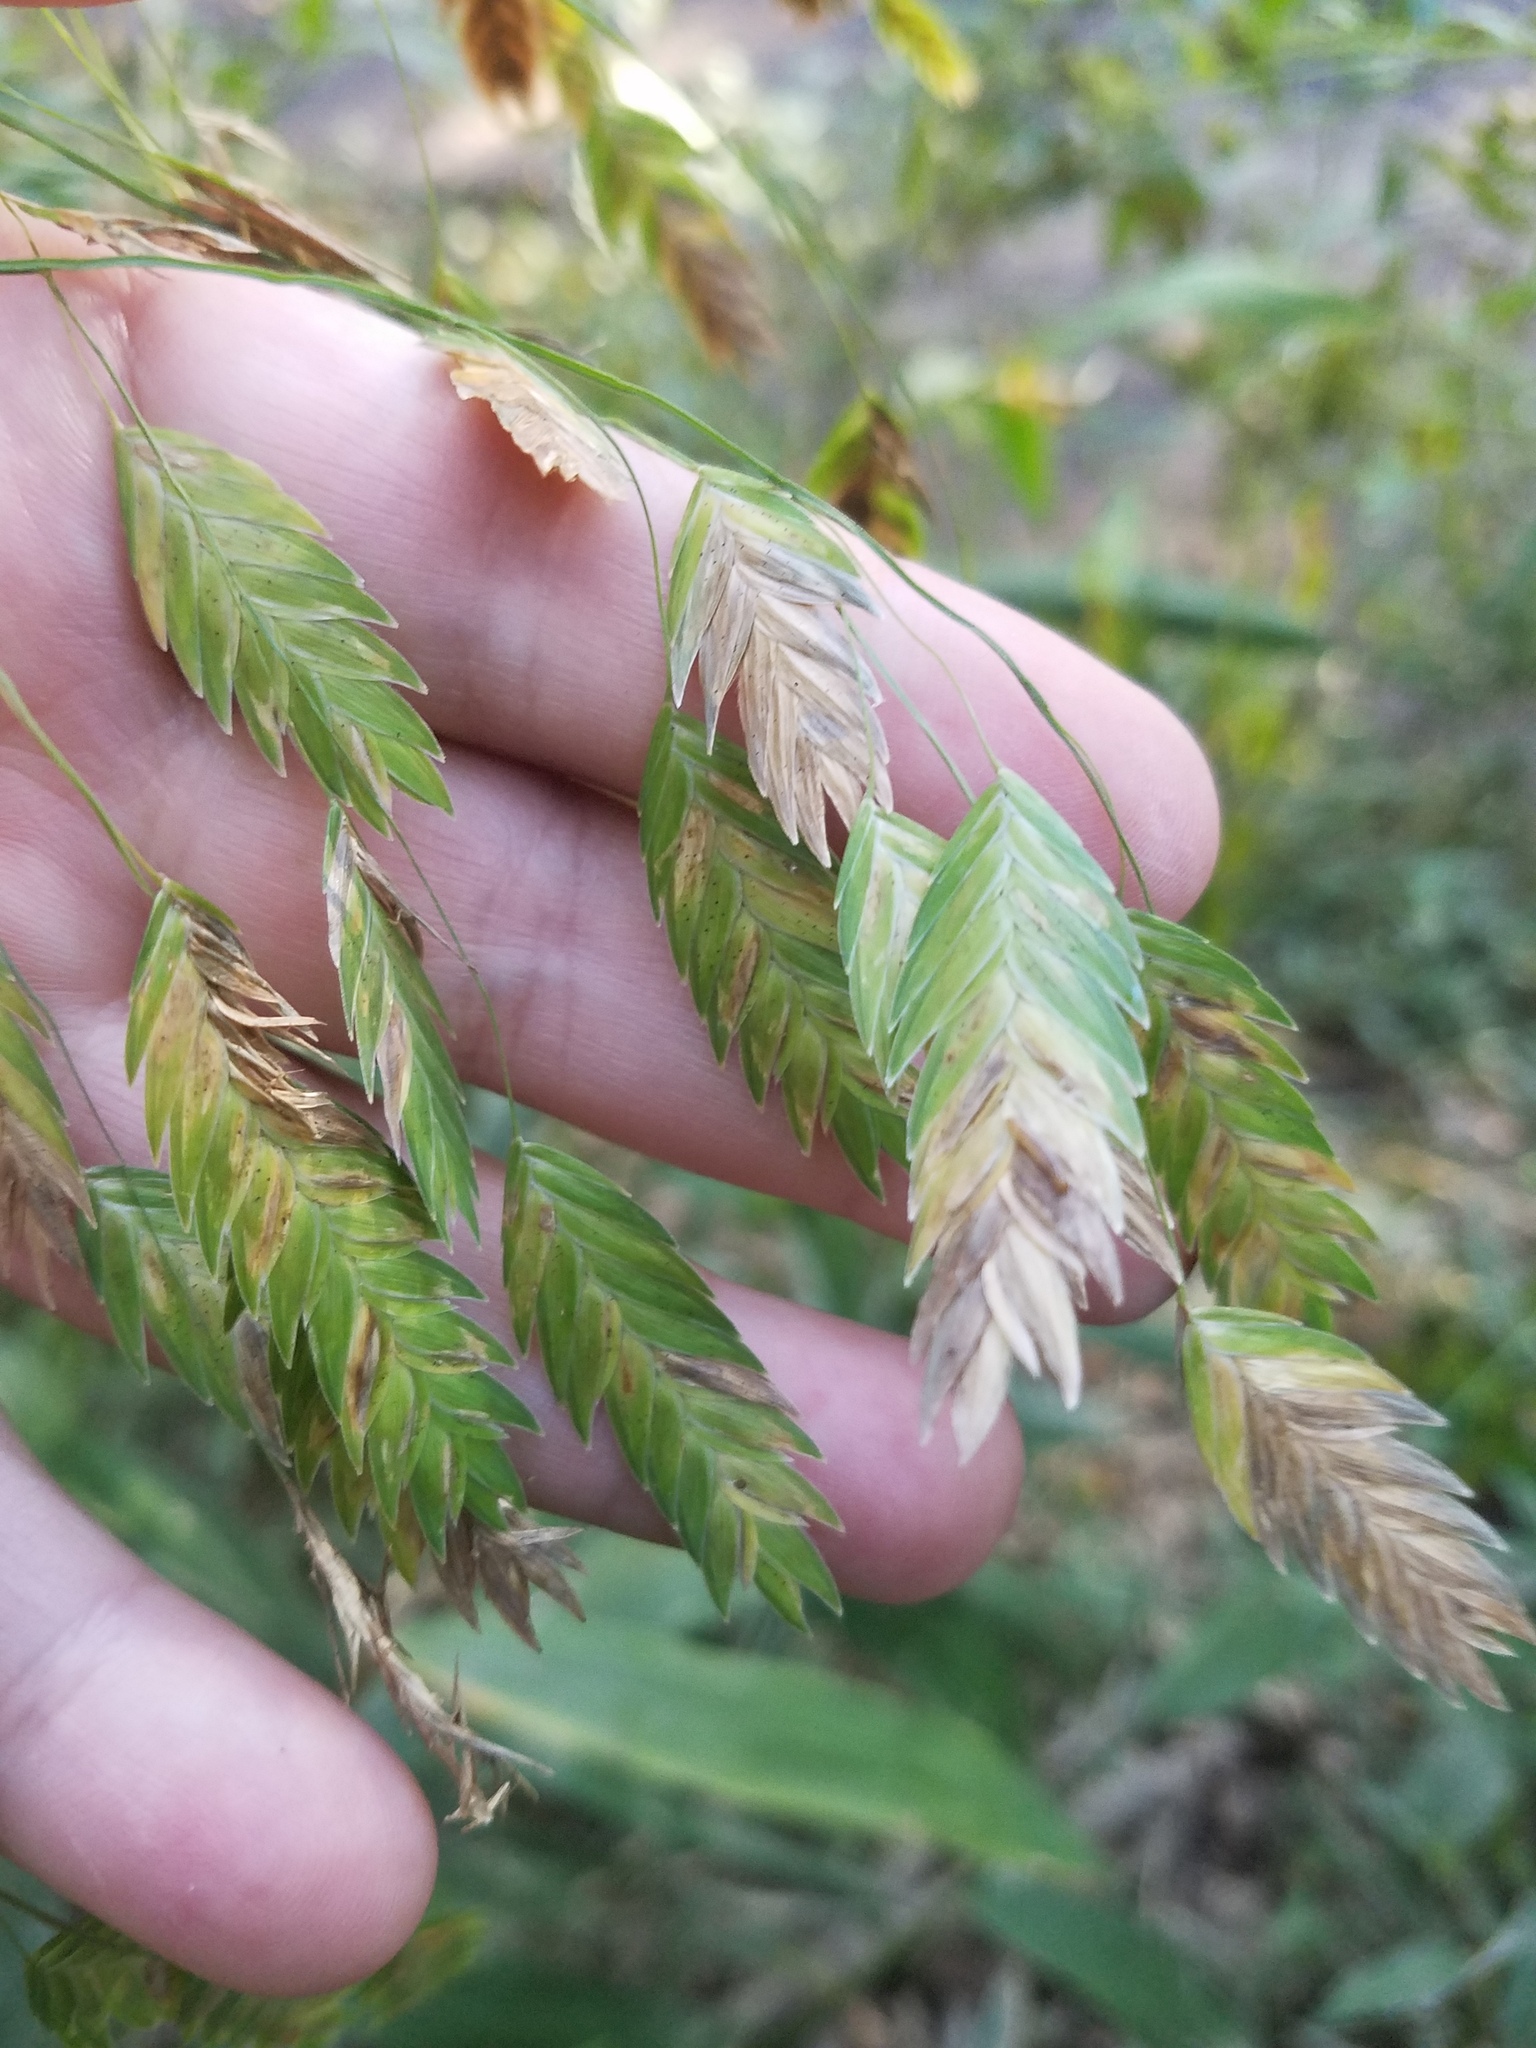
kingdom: Plantae
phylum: Tracheophyta
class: Liliopsida
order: Poales
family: Poaceae
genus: Chasmanthium
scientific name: Chasmanthium latifolium
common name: Broad-leaved chasmanthium
